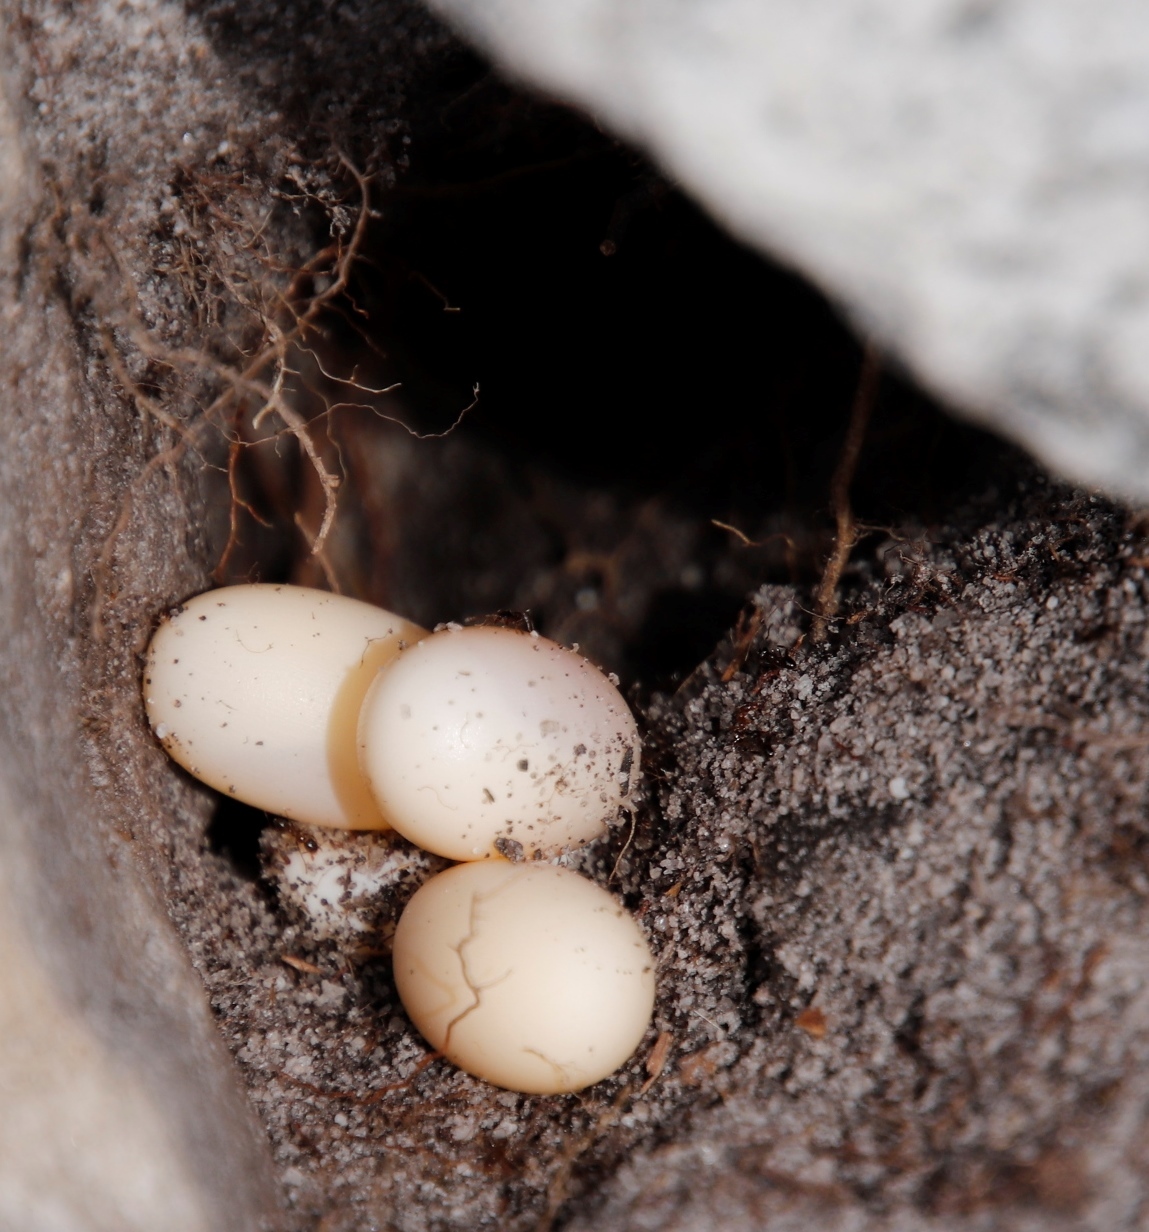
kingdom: Animalia
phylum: Chordata
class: Squamata
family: Agamidae
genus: Agama
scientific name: Agama atra
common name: Southern african rock agama
